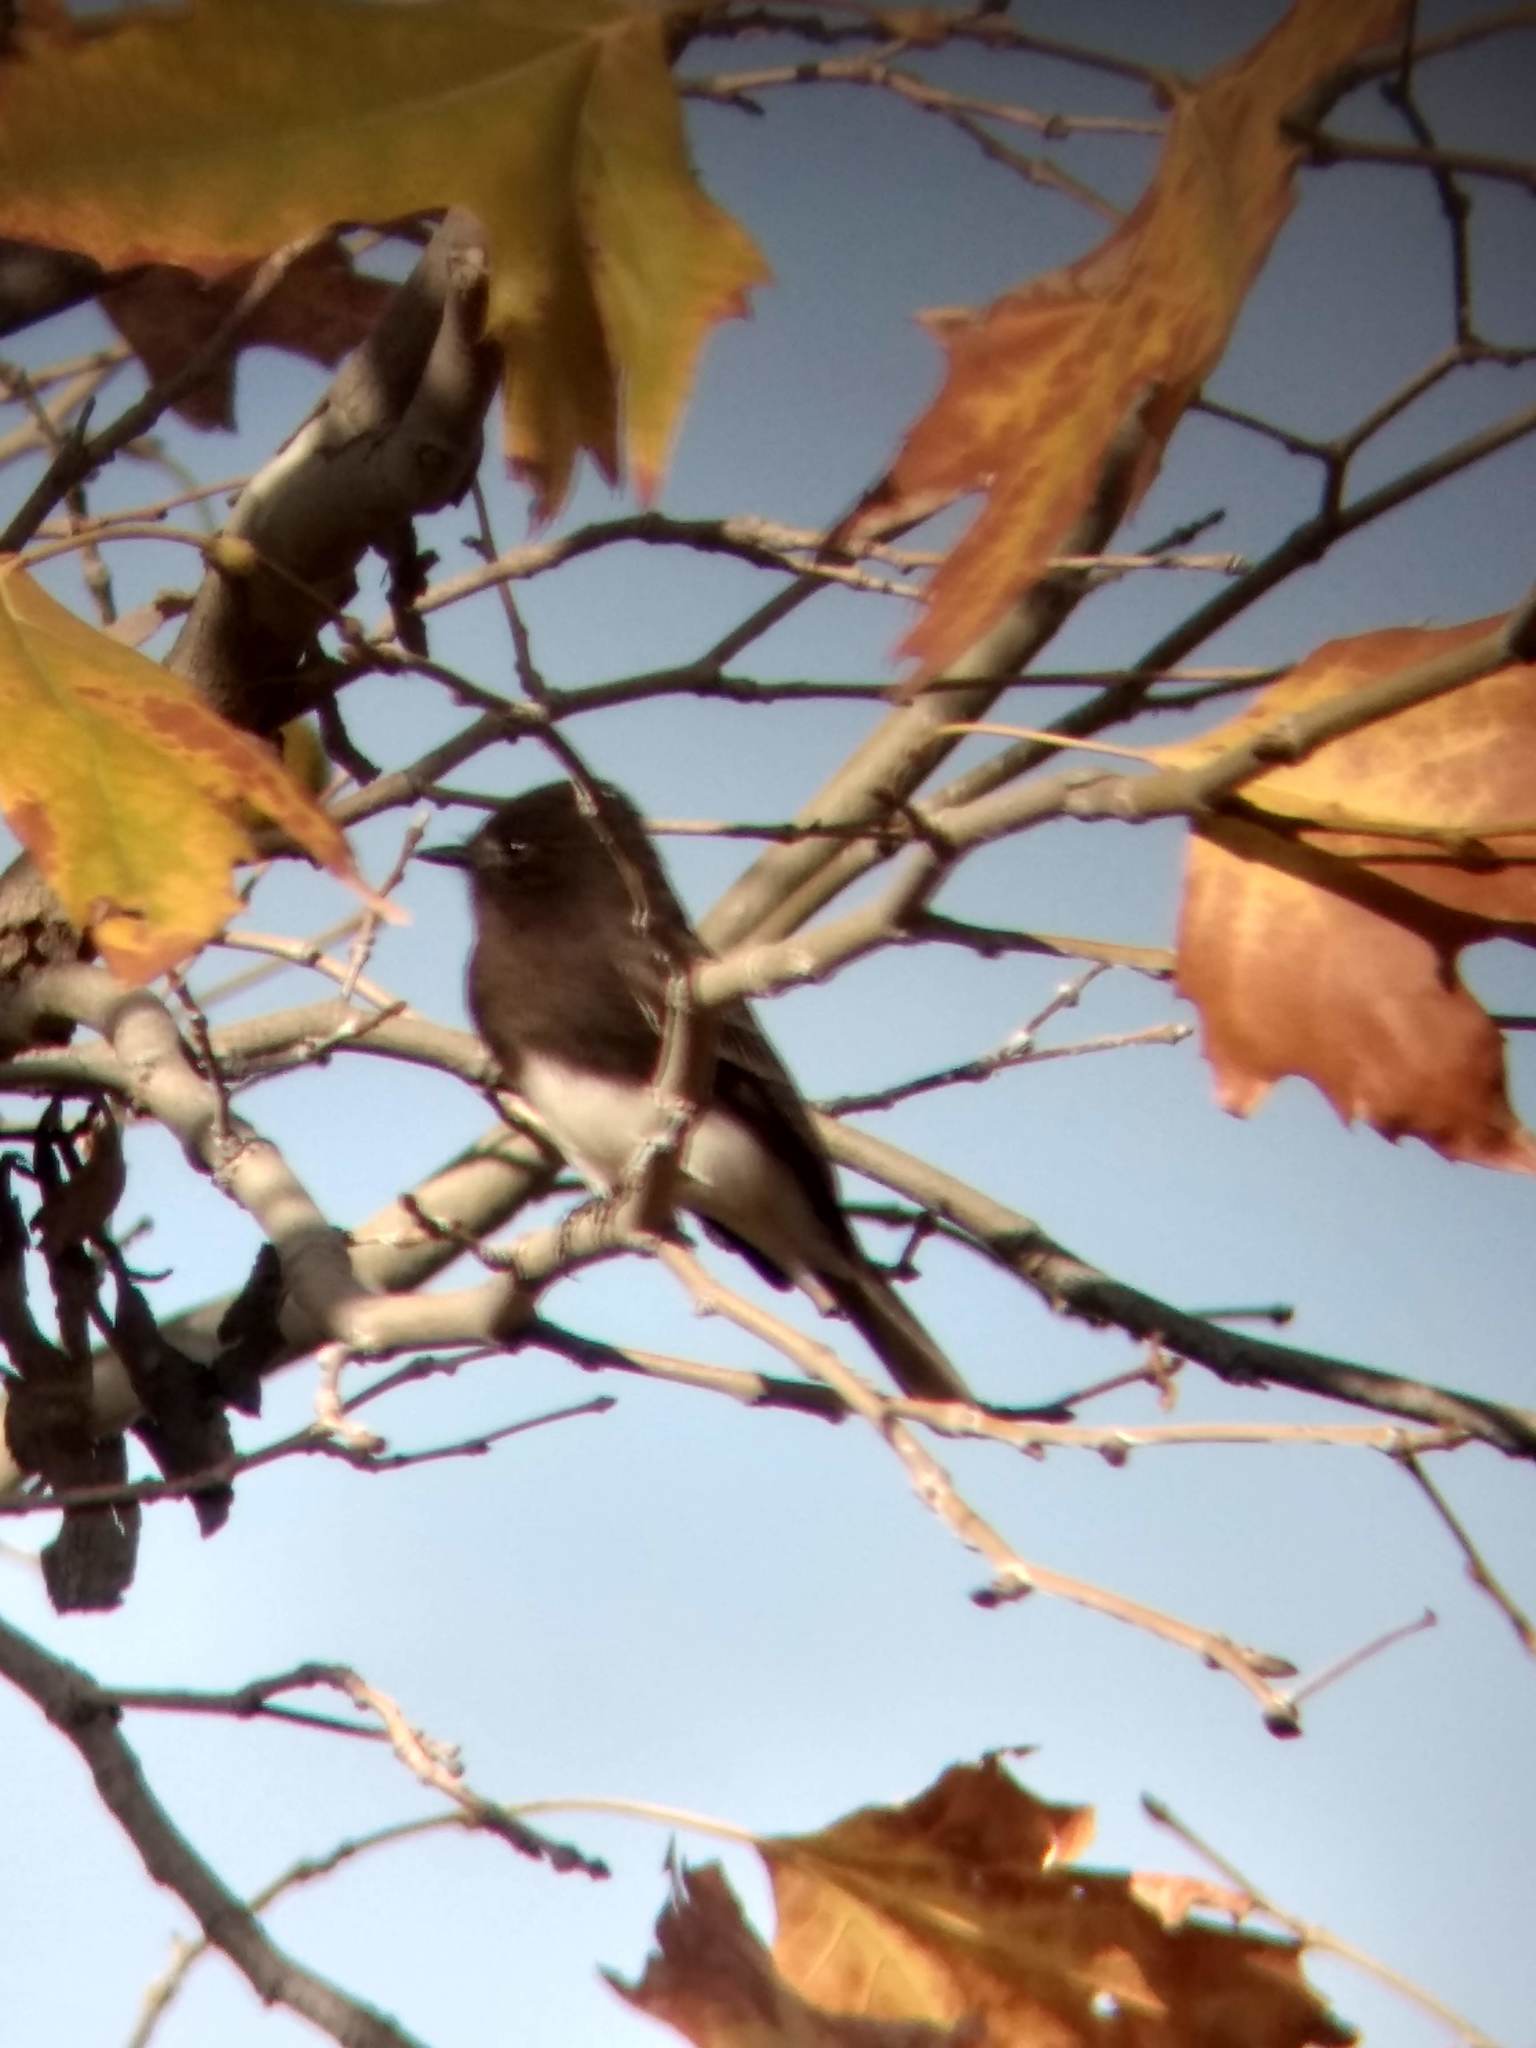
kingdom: Animalia
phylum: Chordata
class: Aves
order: Passeriformes
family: Tyrannidae
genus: Sayornis
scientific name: Sayornis nigricans
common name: Black phoebe
